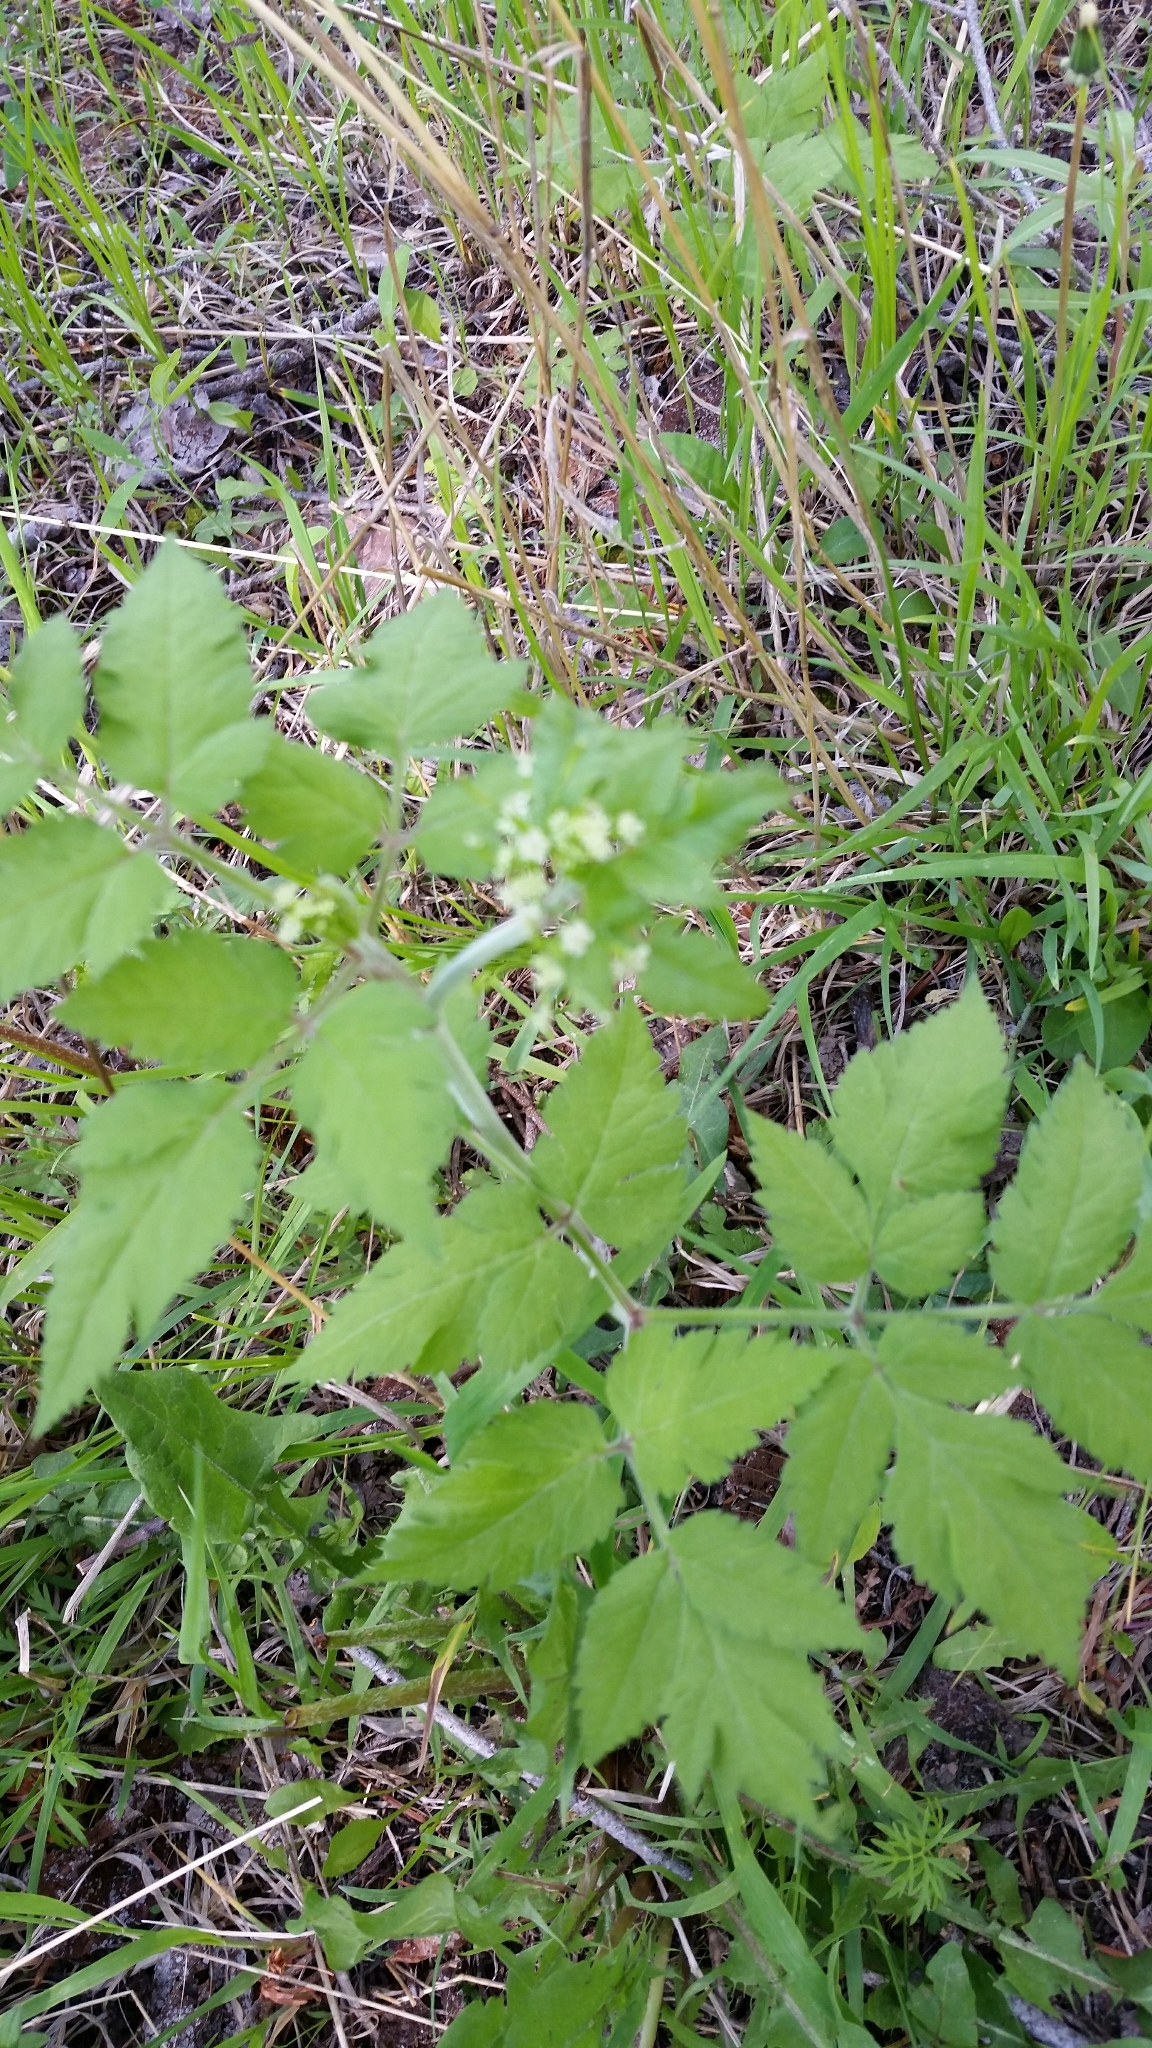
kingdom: Plantae
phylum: Tracheophyta
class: Magnoliopsida
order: Apiales
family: Apiaceae
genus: Osmorhiza
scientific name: Osmorhiza depauperata
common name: Blunt sweet cicely
